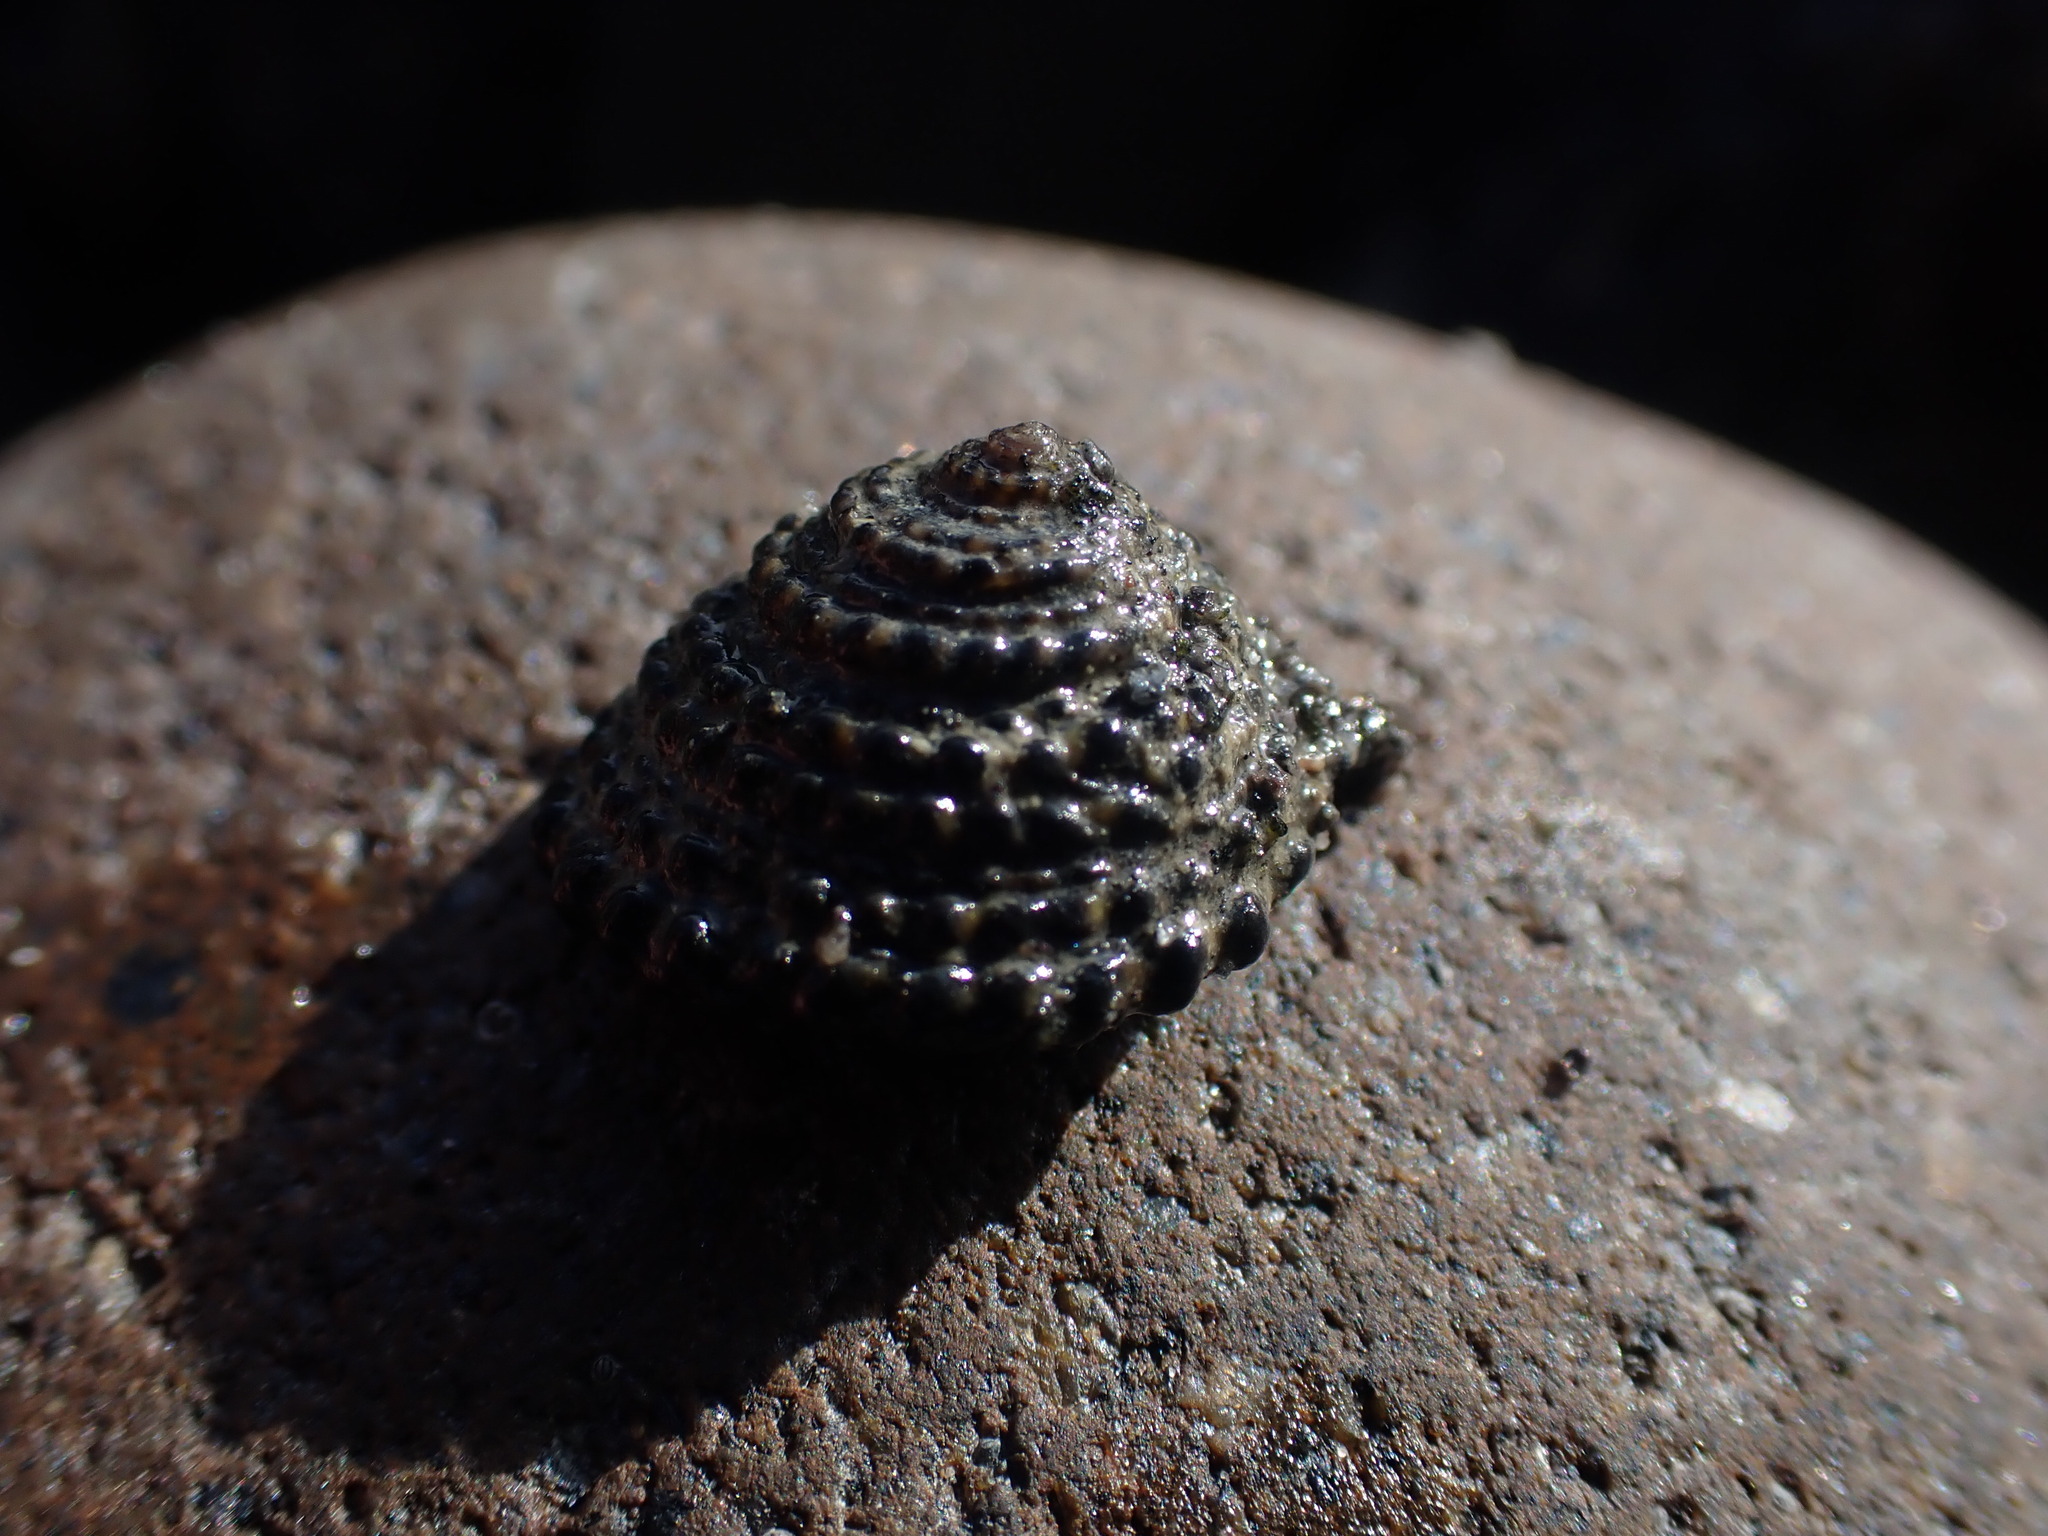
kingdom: Animalia
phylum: Mollusca
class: Gastropoda
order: Trochida
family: Trochidae
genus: Diloma
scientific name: Diloma bicanaliculatum
